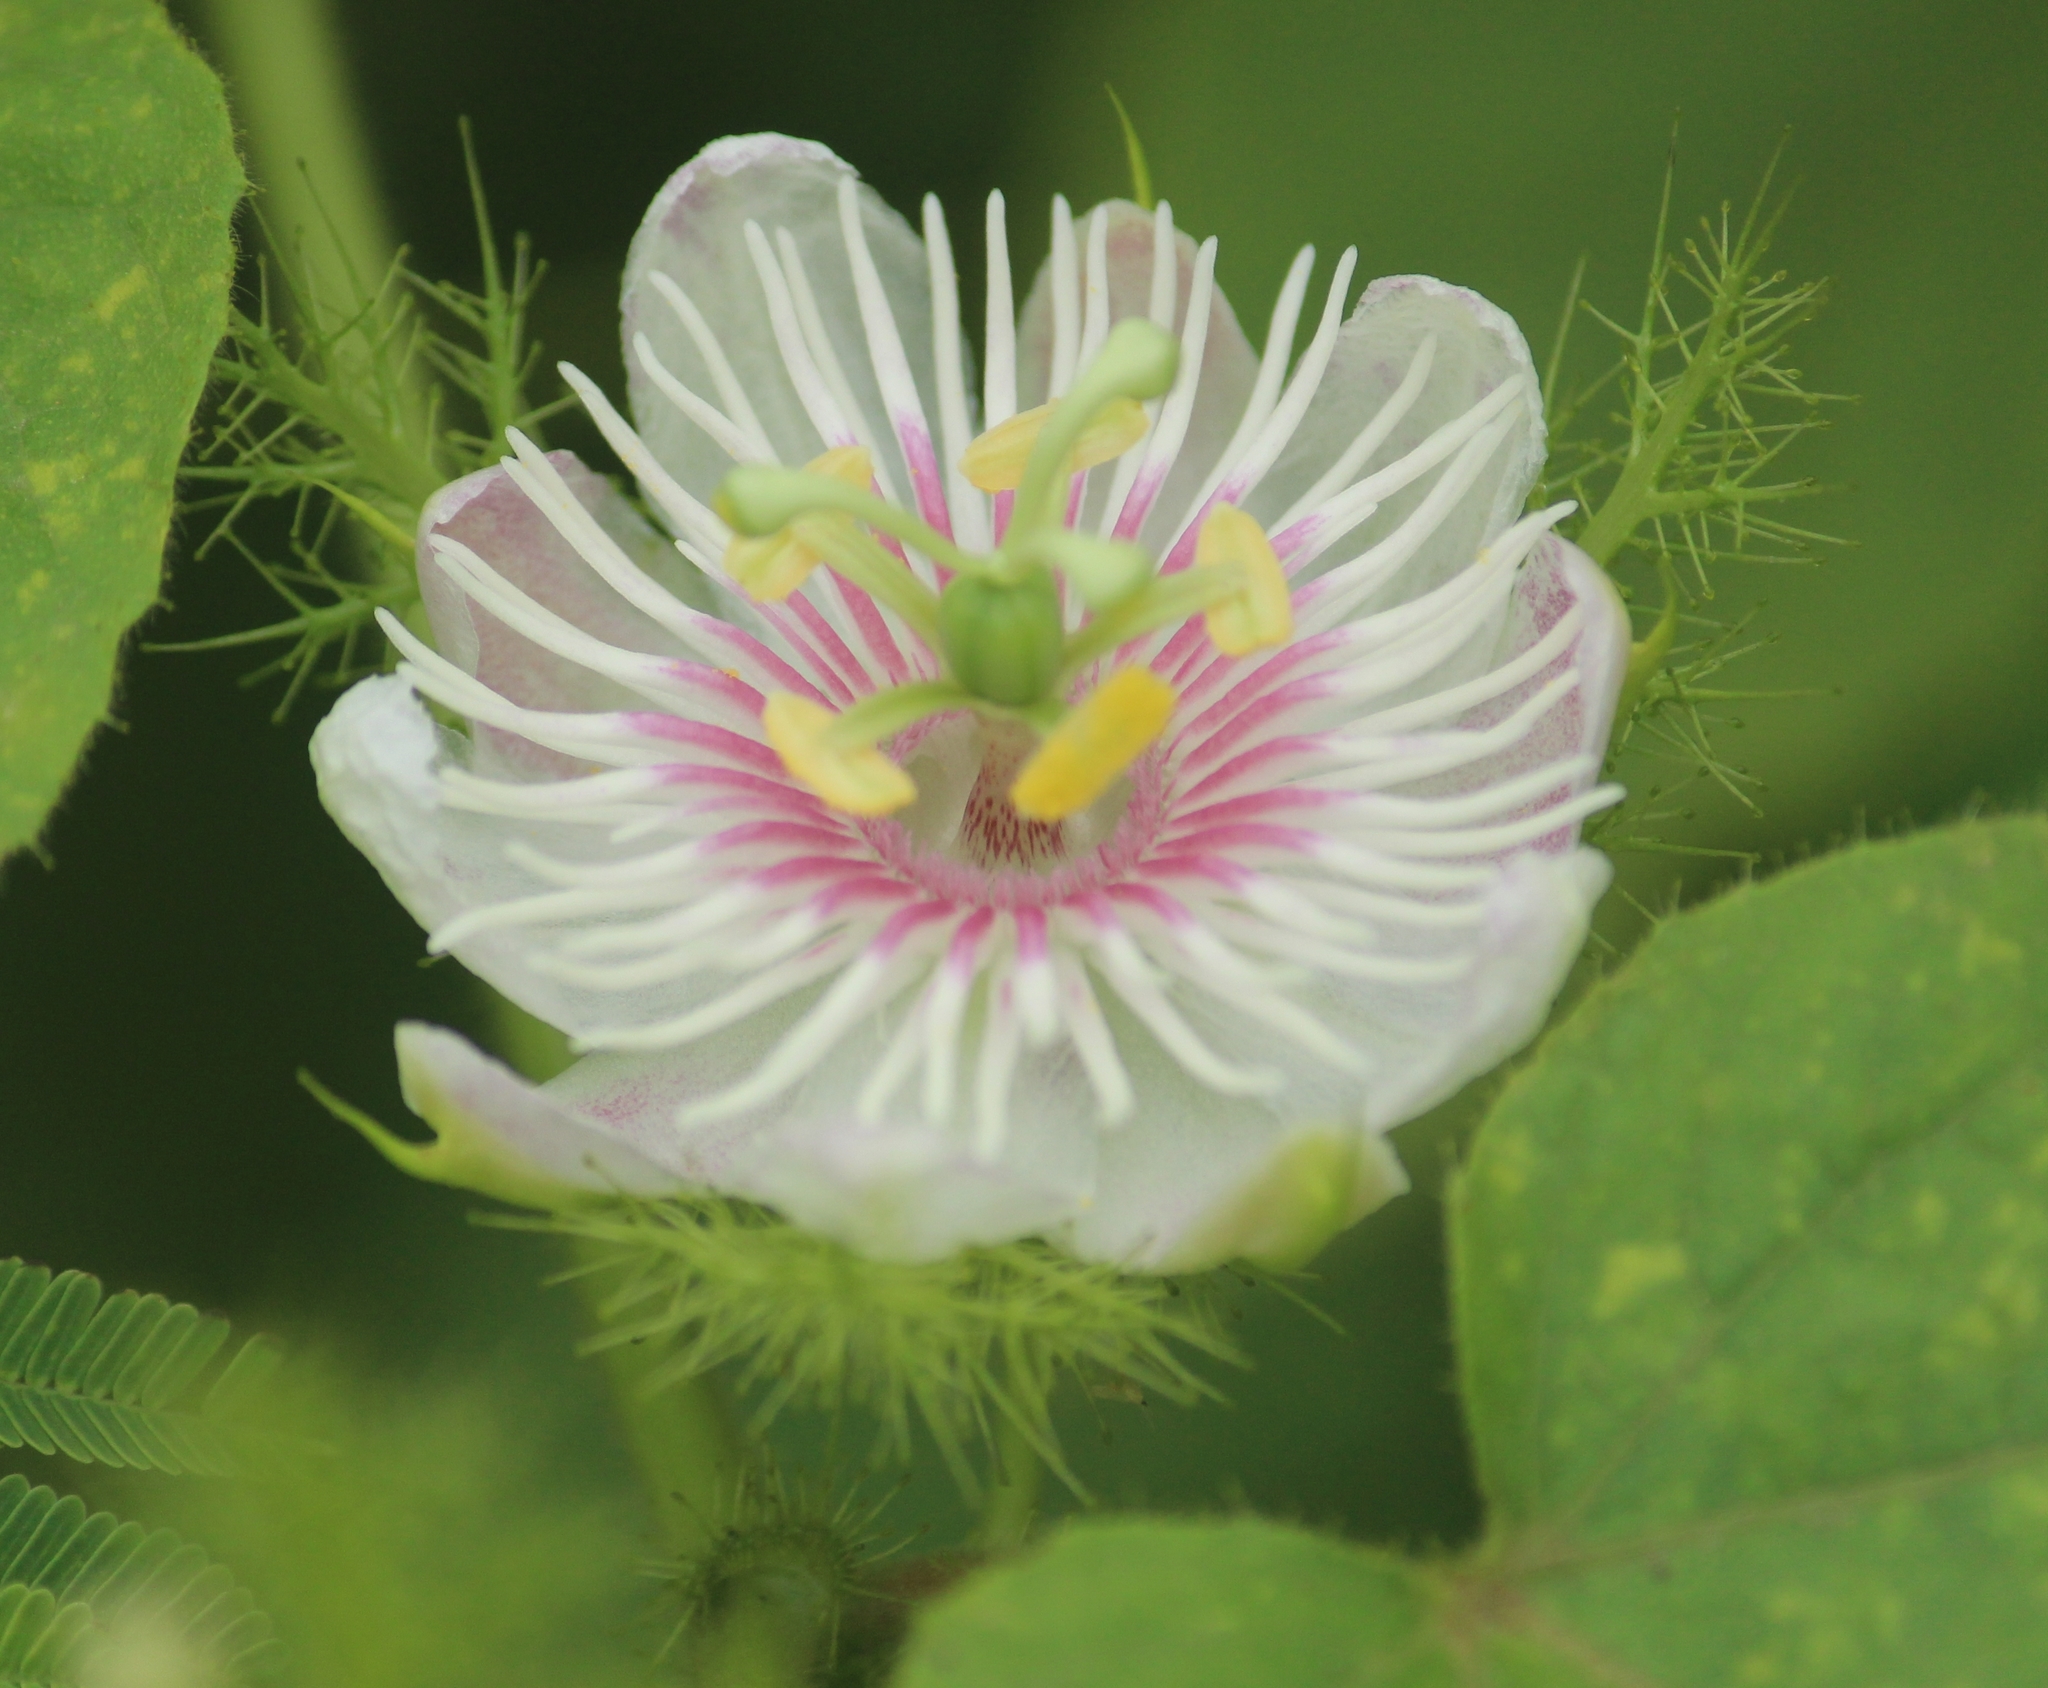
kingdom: Plantae
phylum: Tracheophyta
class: Magnoliopsida
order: Malpighiales
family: Passifloraceae
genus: Passiflora
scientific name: Passiflora foetida
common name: Fetid passionflower
